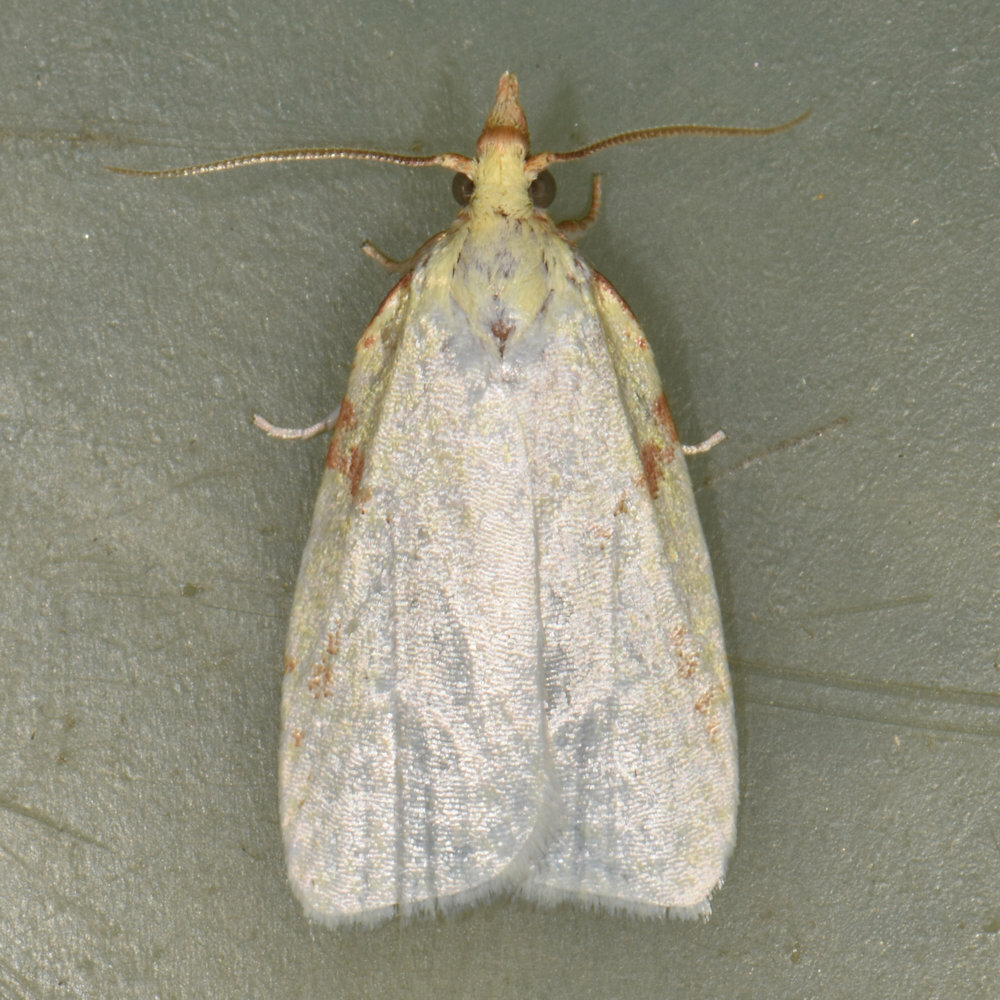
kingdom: Animalia
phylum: Arthropoda
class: Insecta
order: Lepidoptera
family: Tortricidae
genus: Cenopis
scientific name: Cenopis pettitana
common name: Maple-basswood leafroller moth
